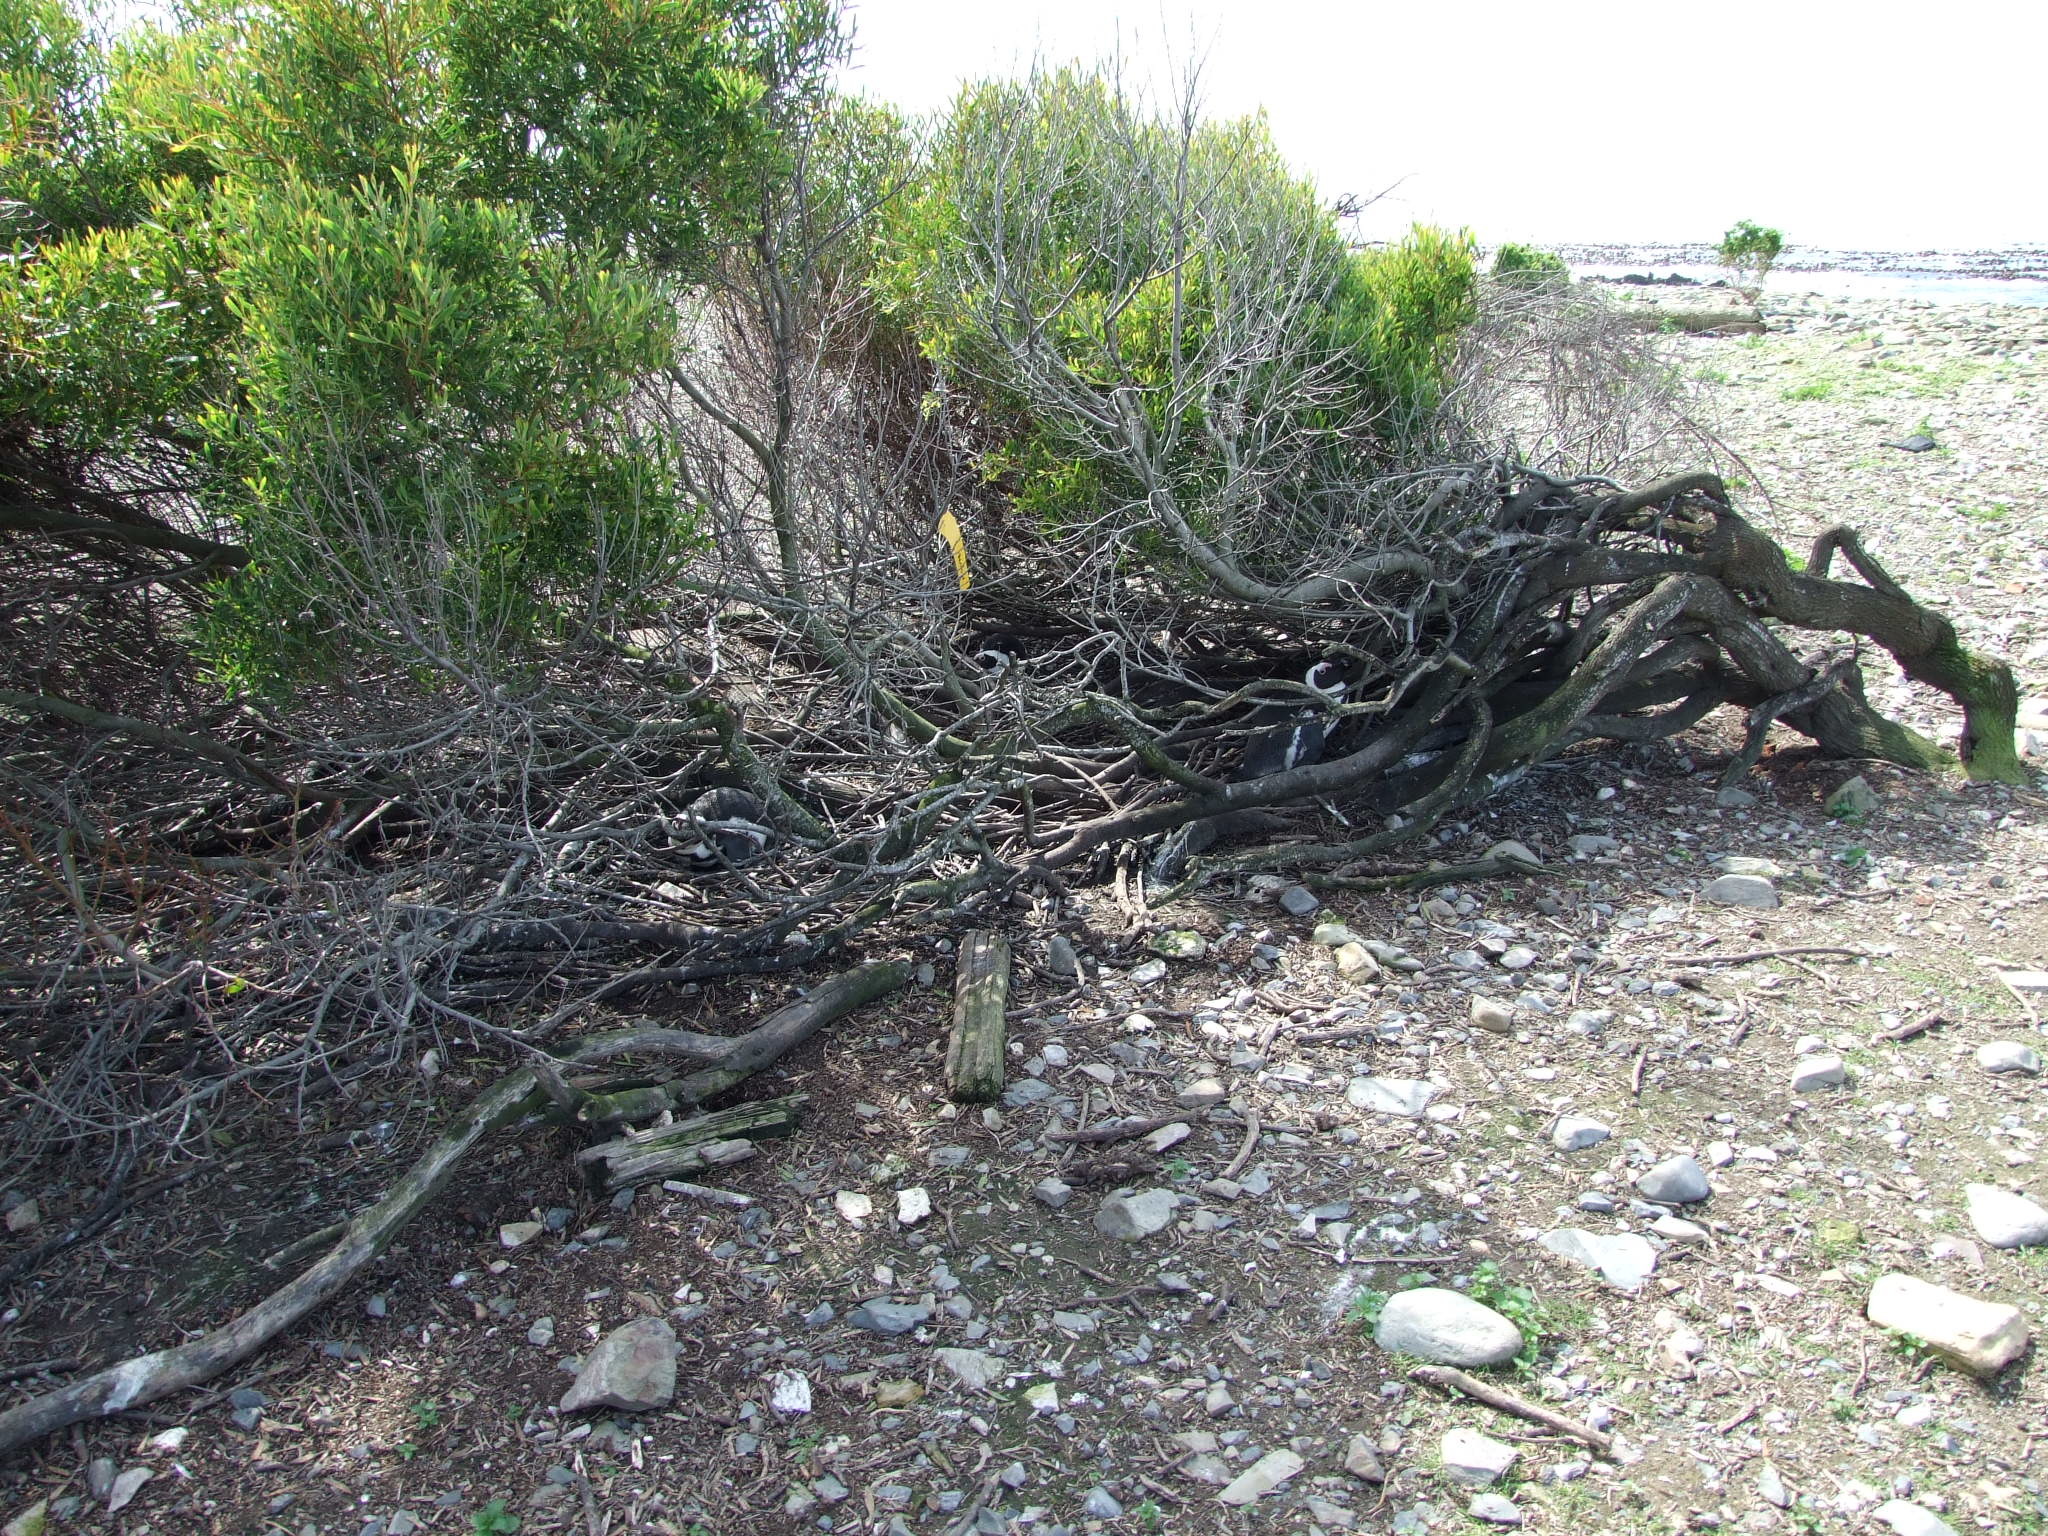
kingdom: Plantae
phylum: Tracheophyta
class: Magnoliopsida
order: Fabales
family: Fabaceae
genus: Acacia
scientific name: Acacia cyclops
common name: Coastal wattle
